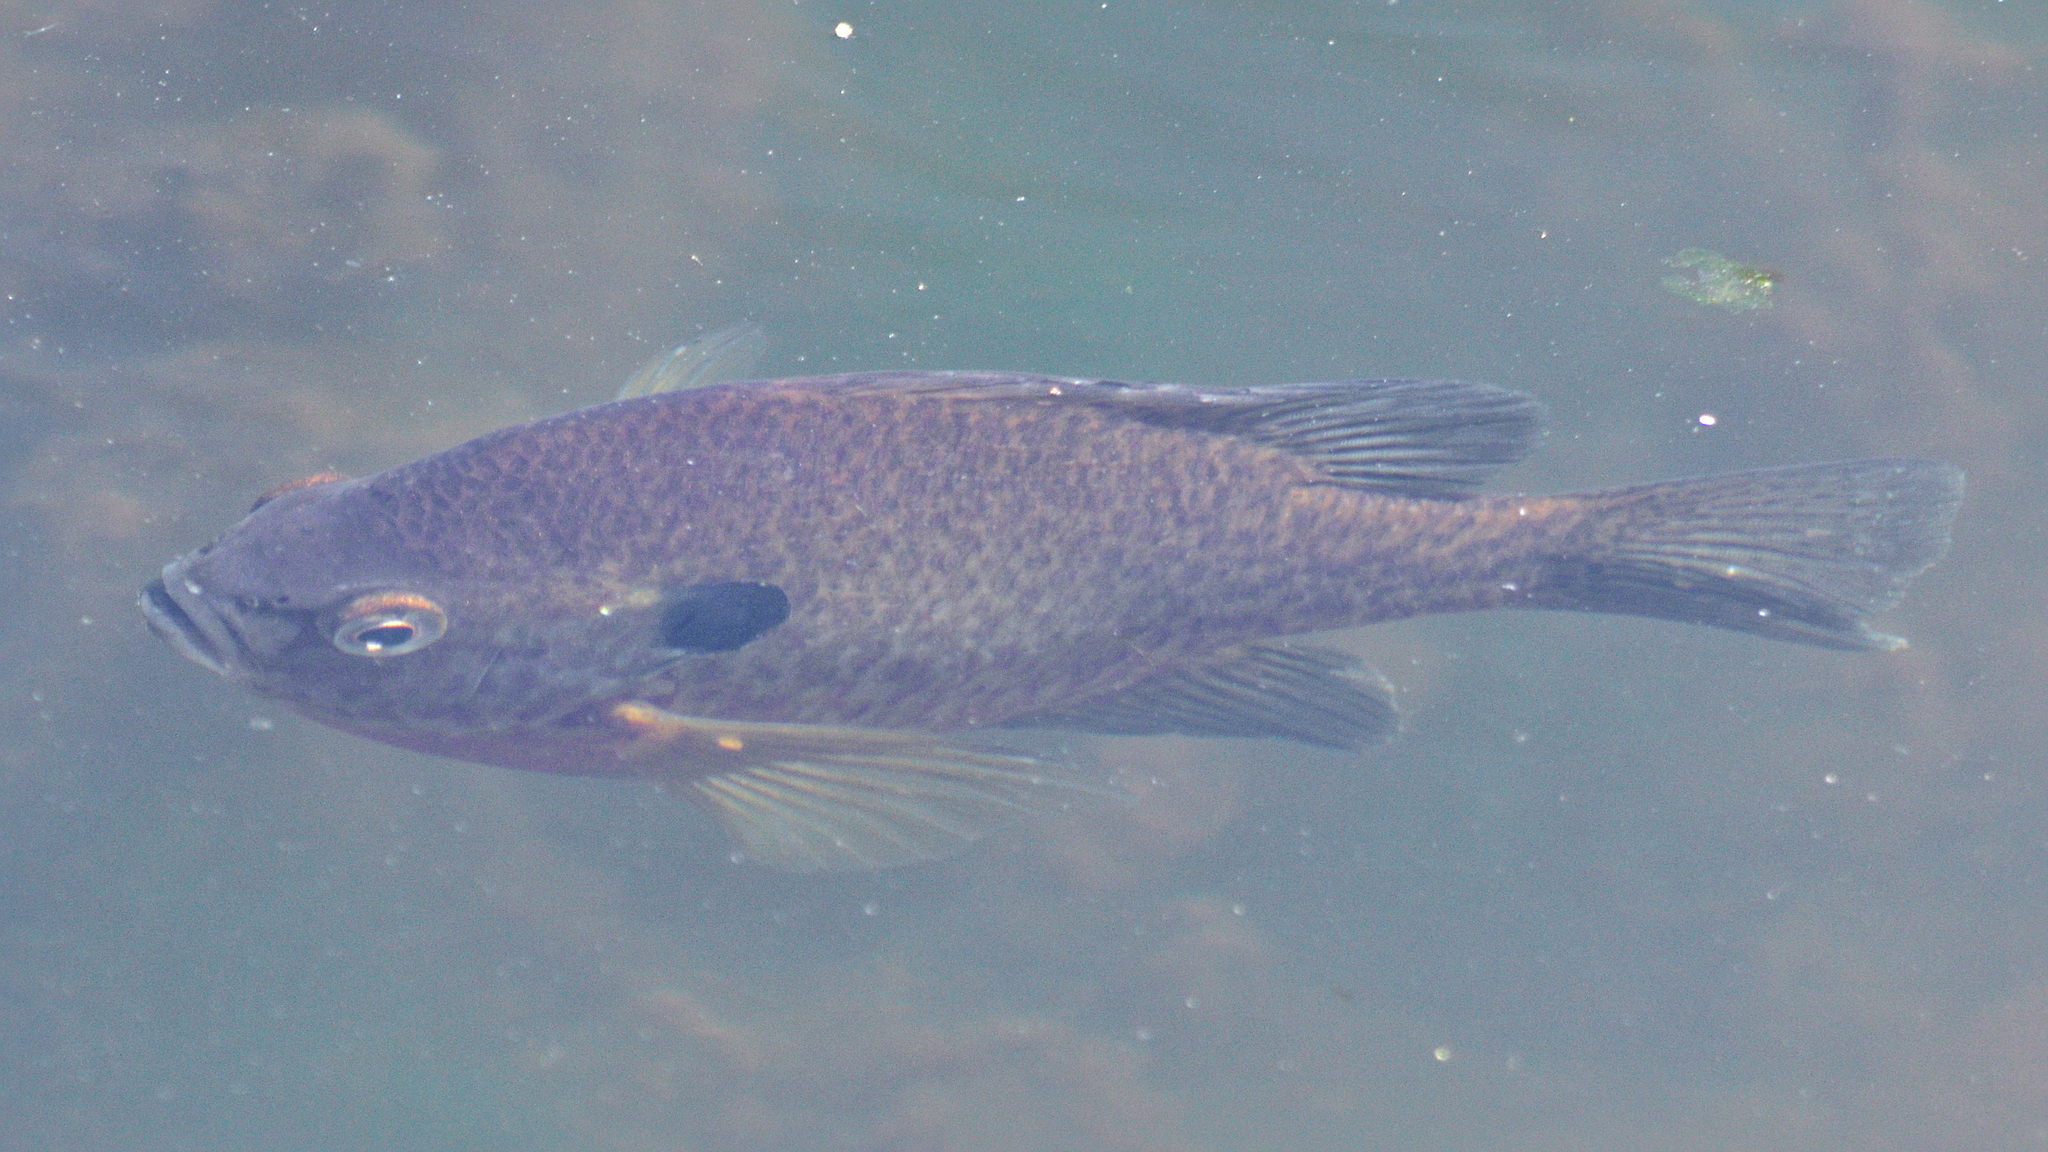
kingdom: Animalia
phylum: Chordata
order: Perciformes
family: Centrarchidae
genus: Lepomis
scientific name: Lepomis
